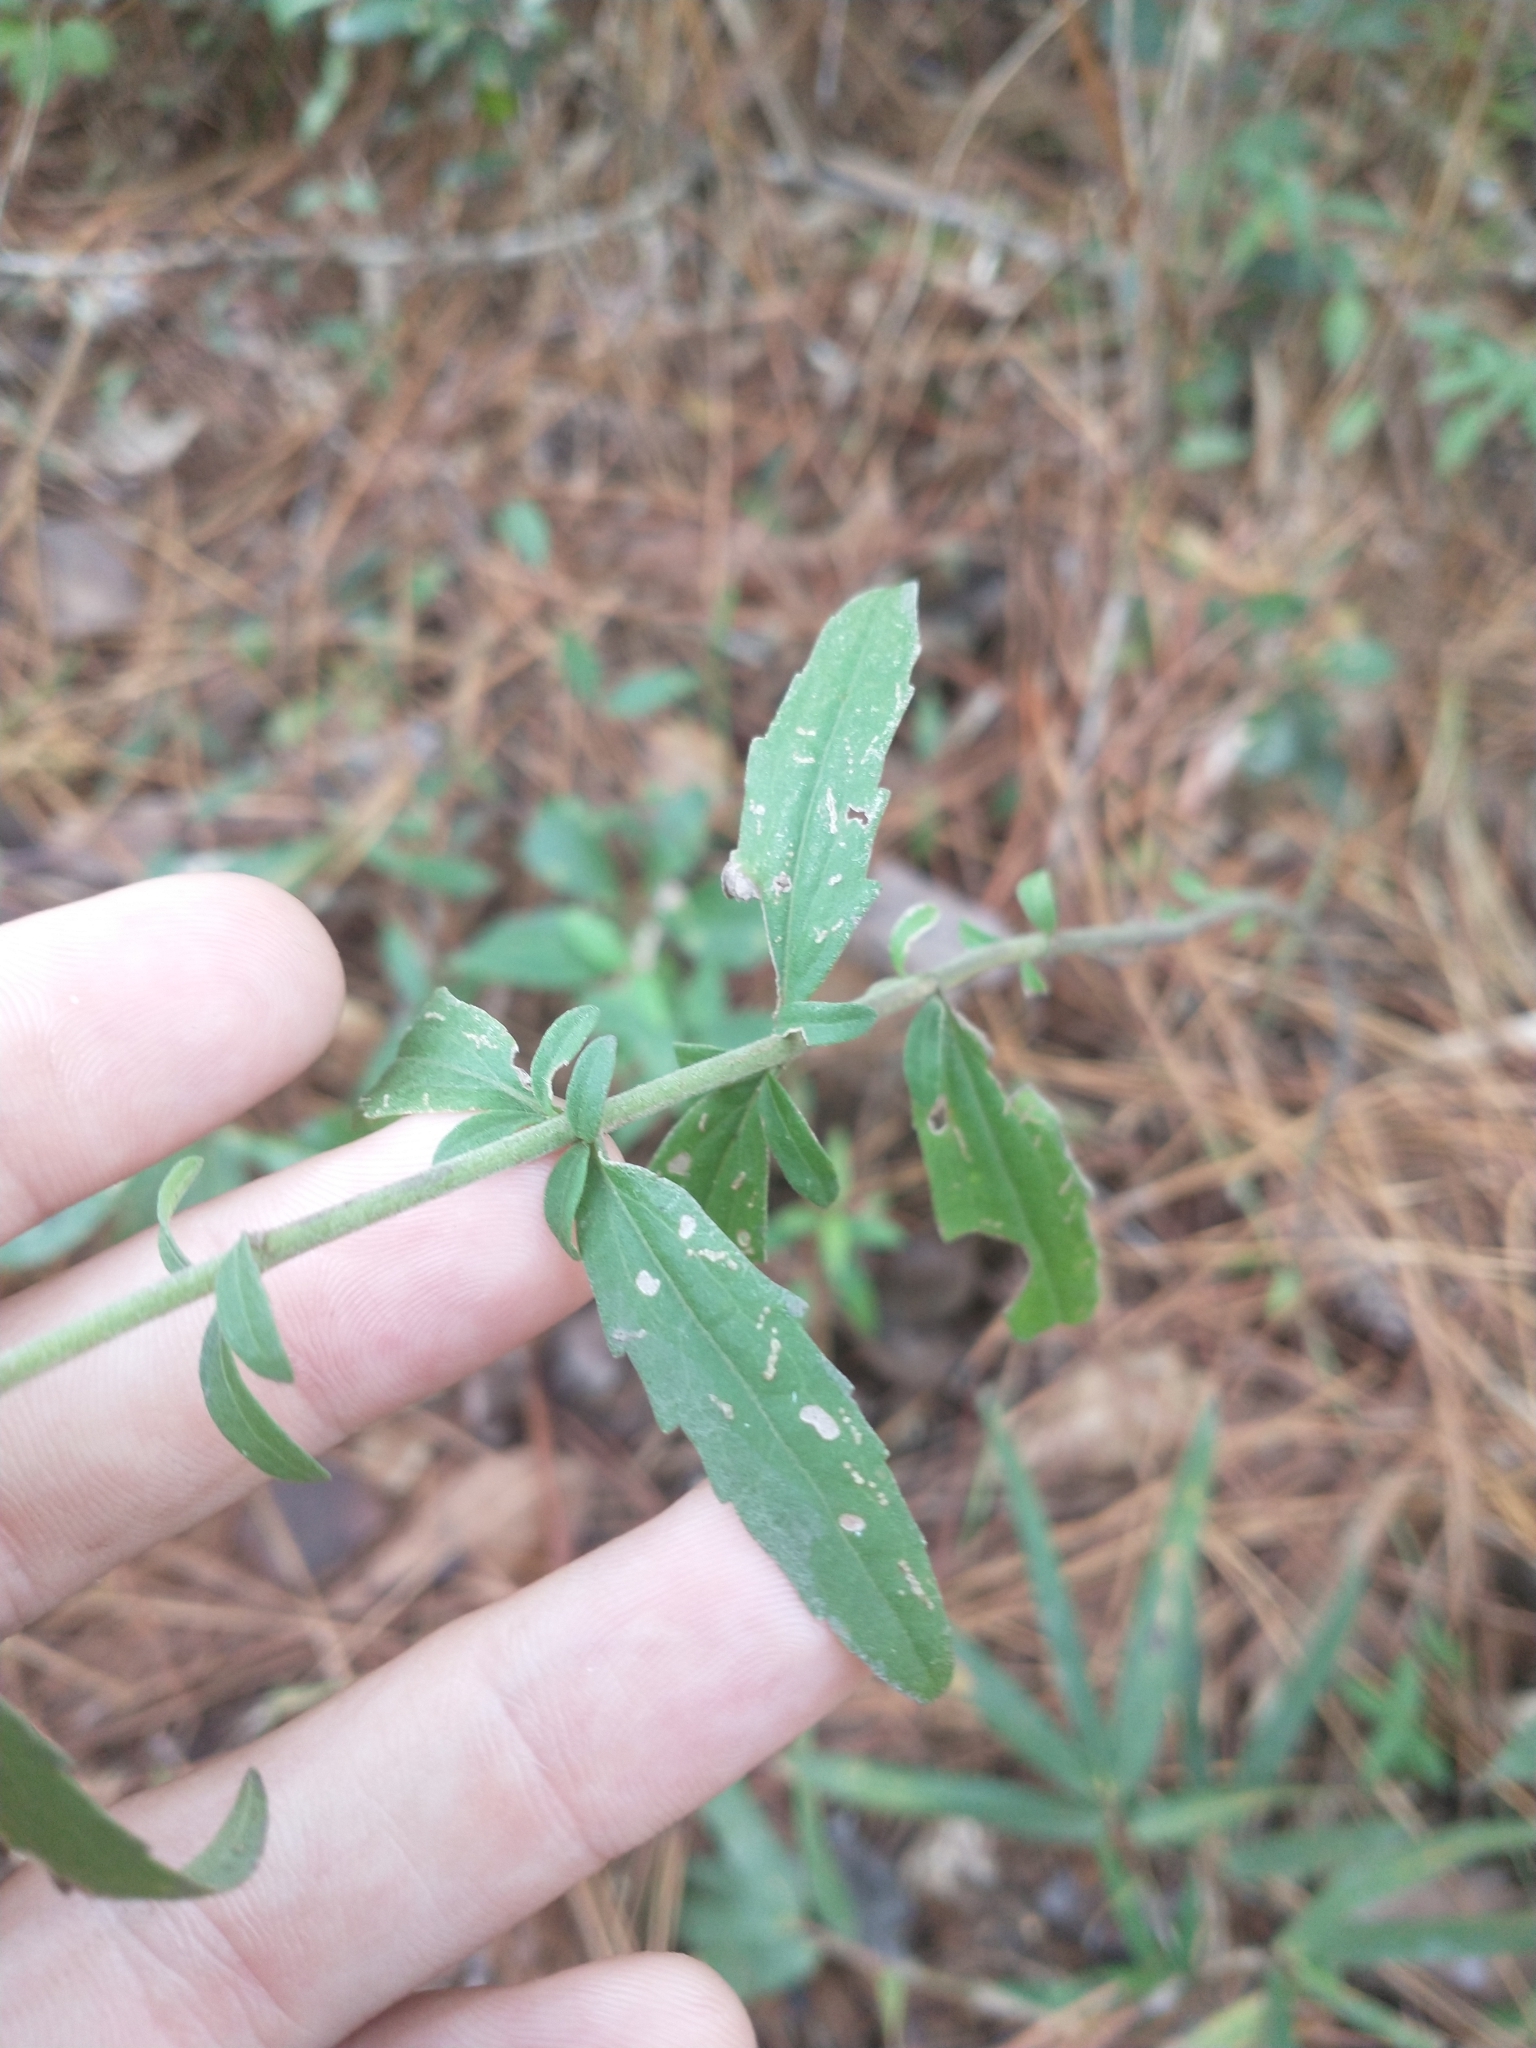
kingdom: Plantae
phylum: Tracheophyta
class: Magnoliopsida
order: Asterales
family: Asteraceae
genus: Eupatorium
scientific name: Eupatorium mohrii
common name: Mohr's thoroughwort
